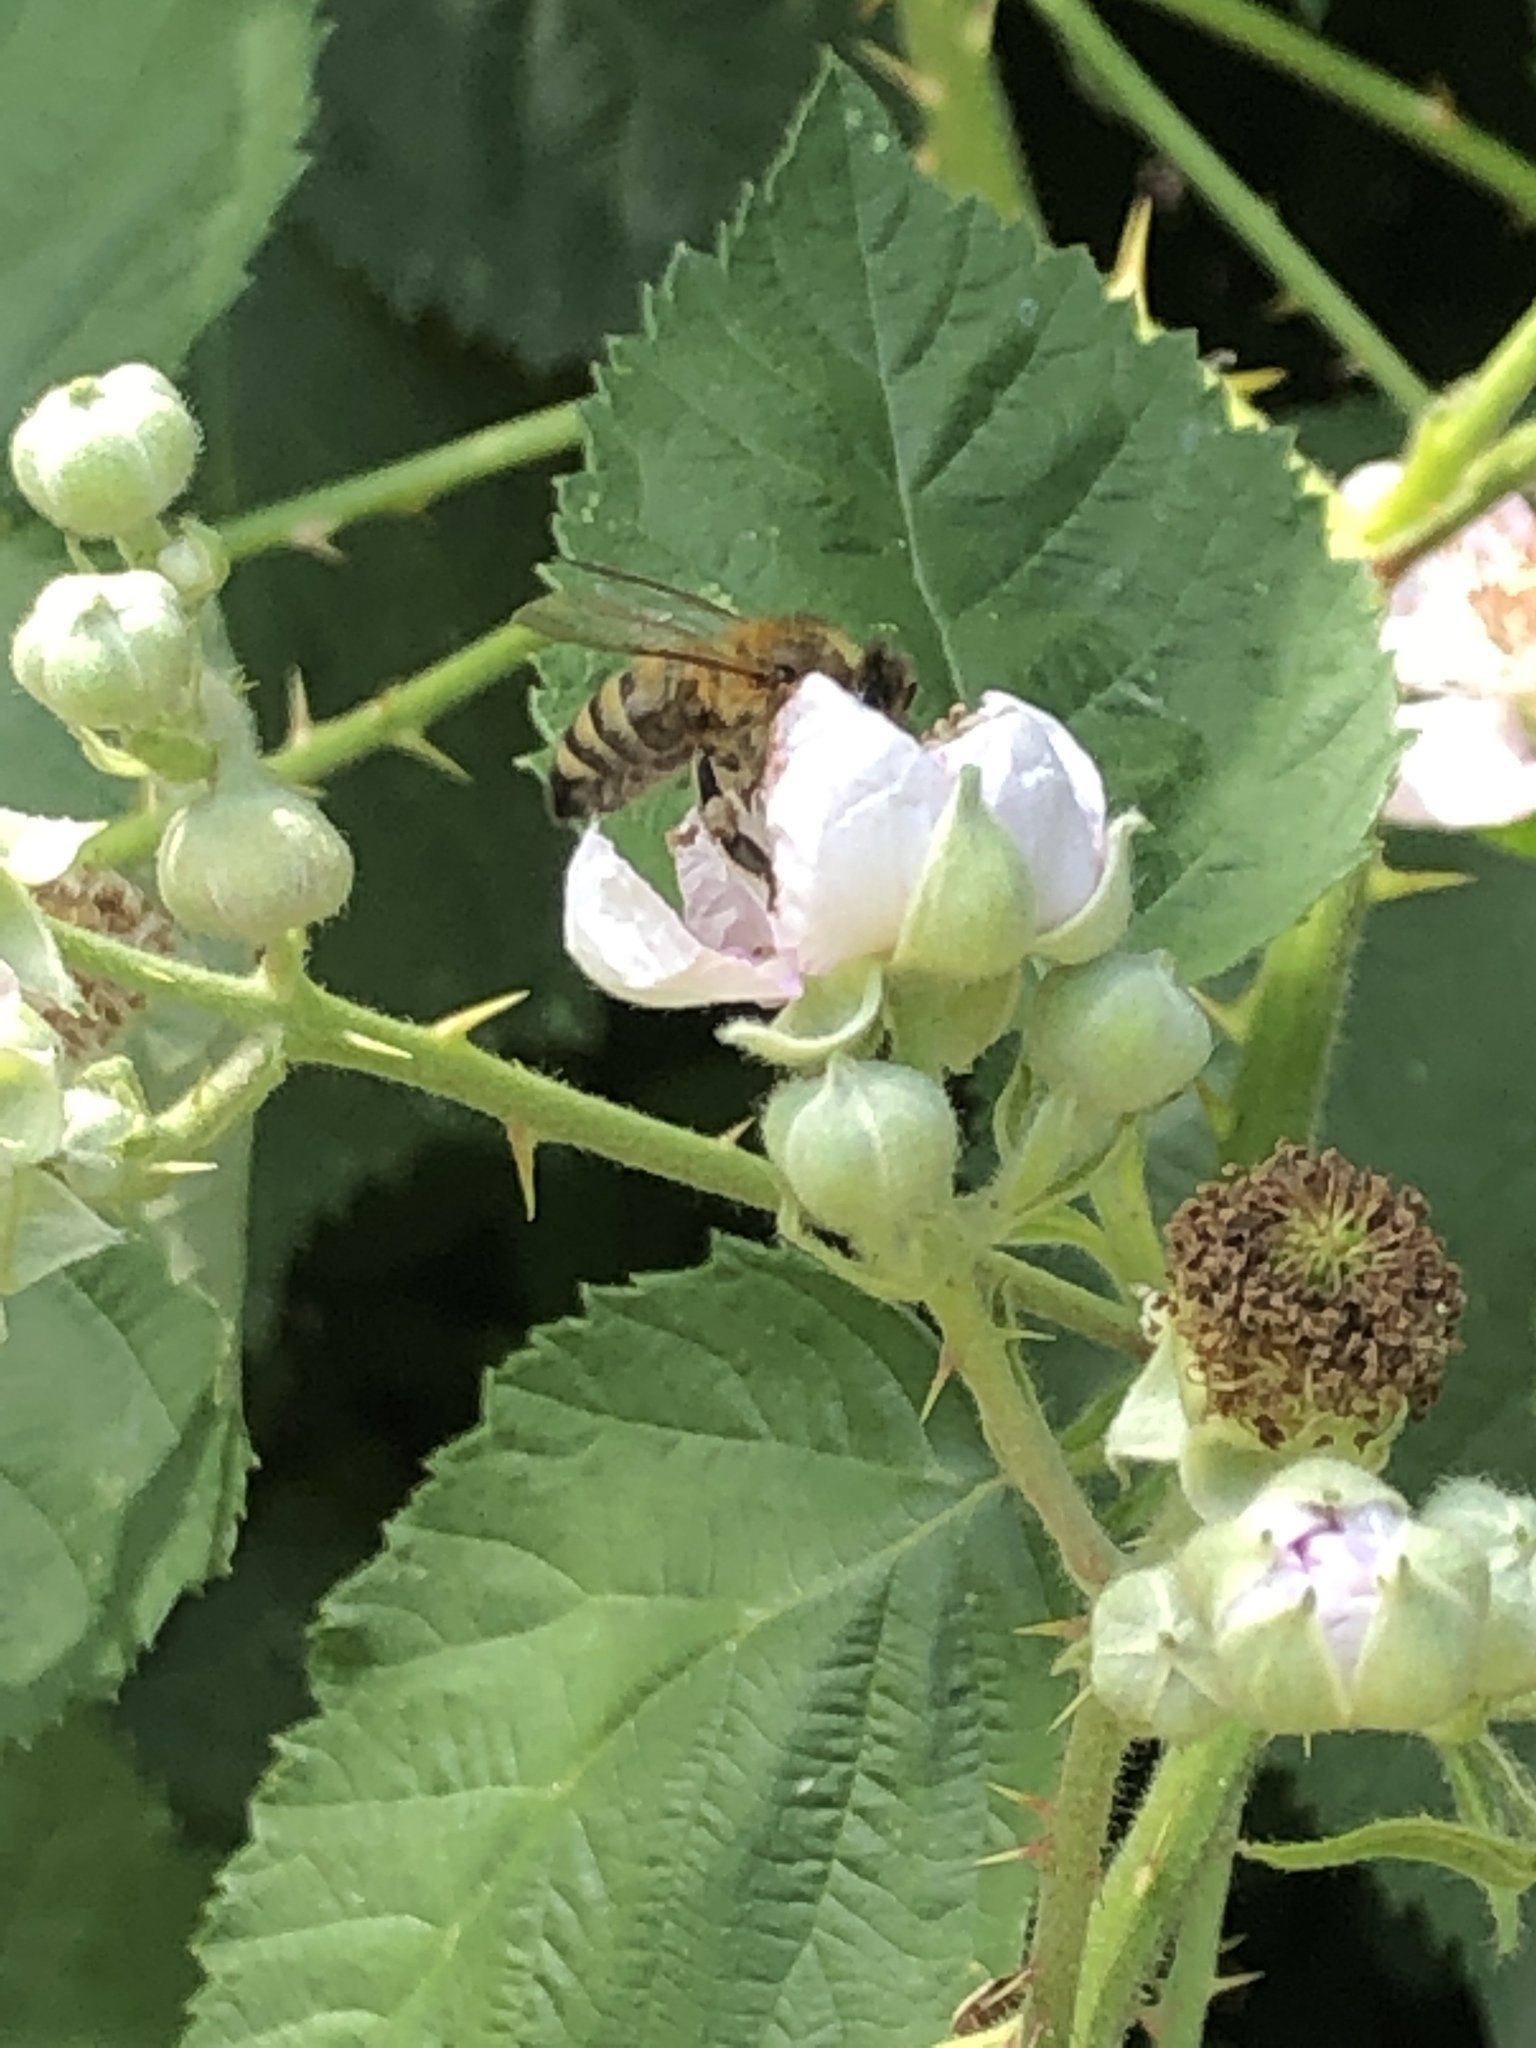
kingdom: Animalia
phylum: Arthropoda
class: Insecta
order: Hymenoptera
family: Apidae
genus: Apis
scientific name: Apis mellifera
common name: Honey bee
